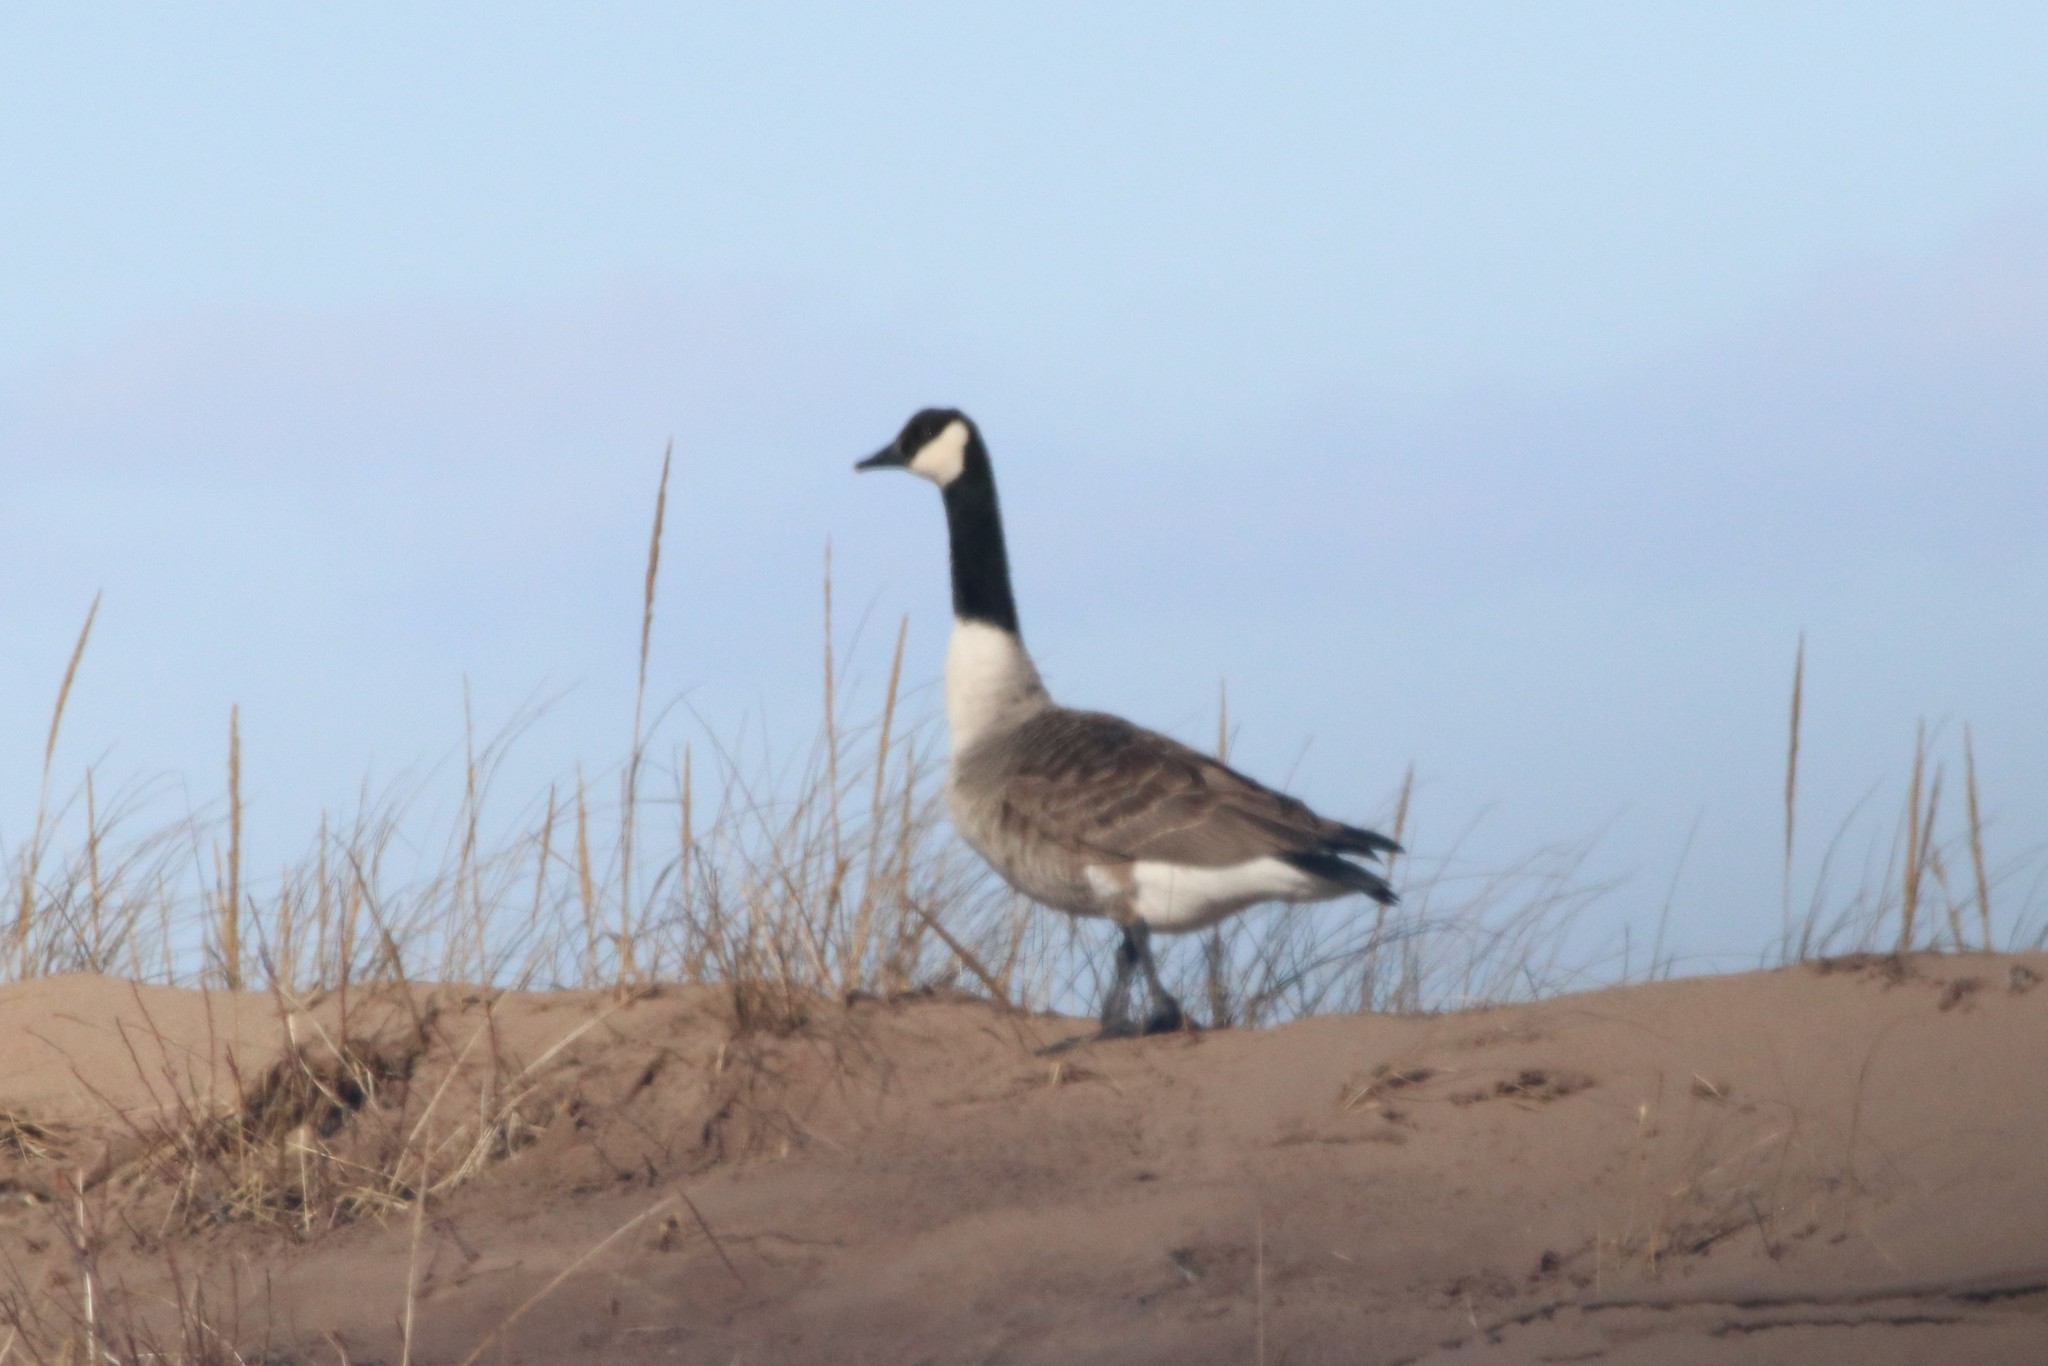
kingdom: Animalia
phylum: Chordata
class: Aves
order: Anseriformes
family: Anatidae
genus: Branta
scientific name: Branta canadensis
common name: Canada goose
